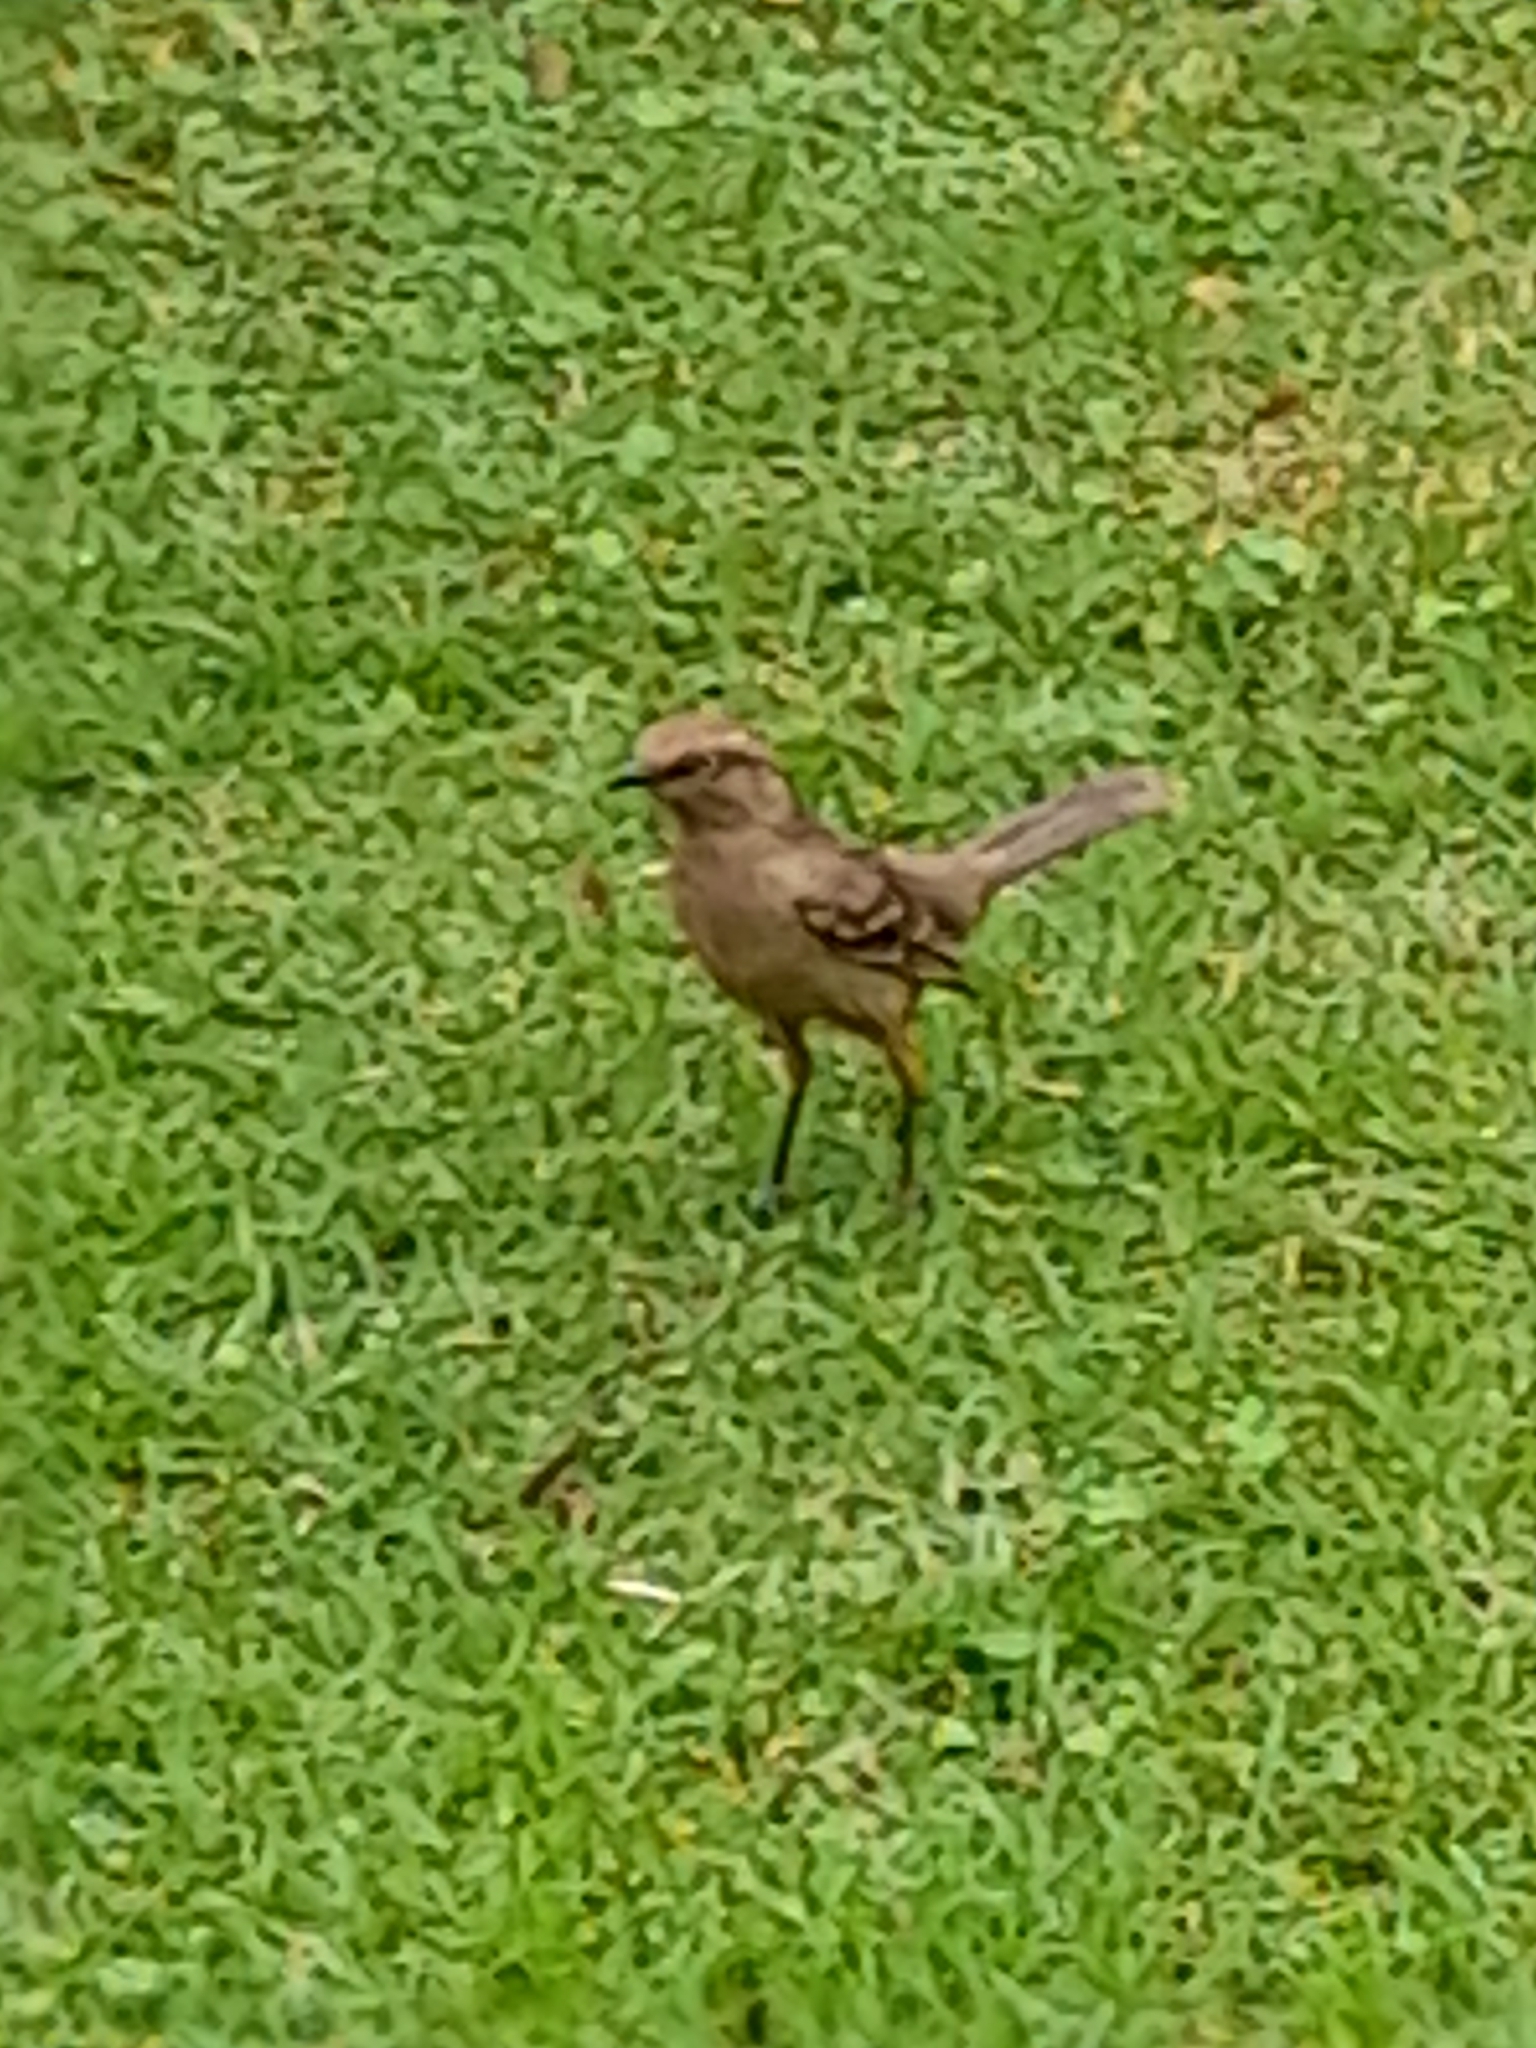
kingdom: Animalia
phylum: Chordata
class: Aves
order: Passeriformes
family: Mimidae
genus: Mimus
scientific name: Mimus saturninus
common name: Chalk-browed mockingbird
